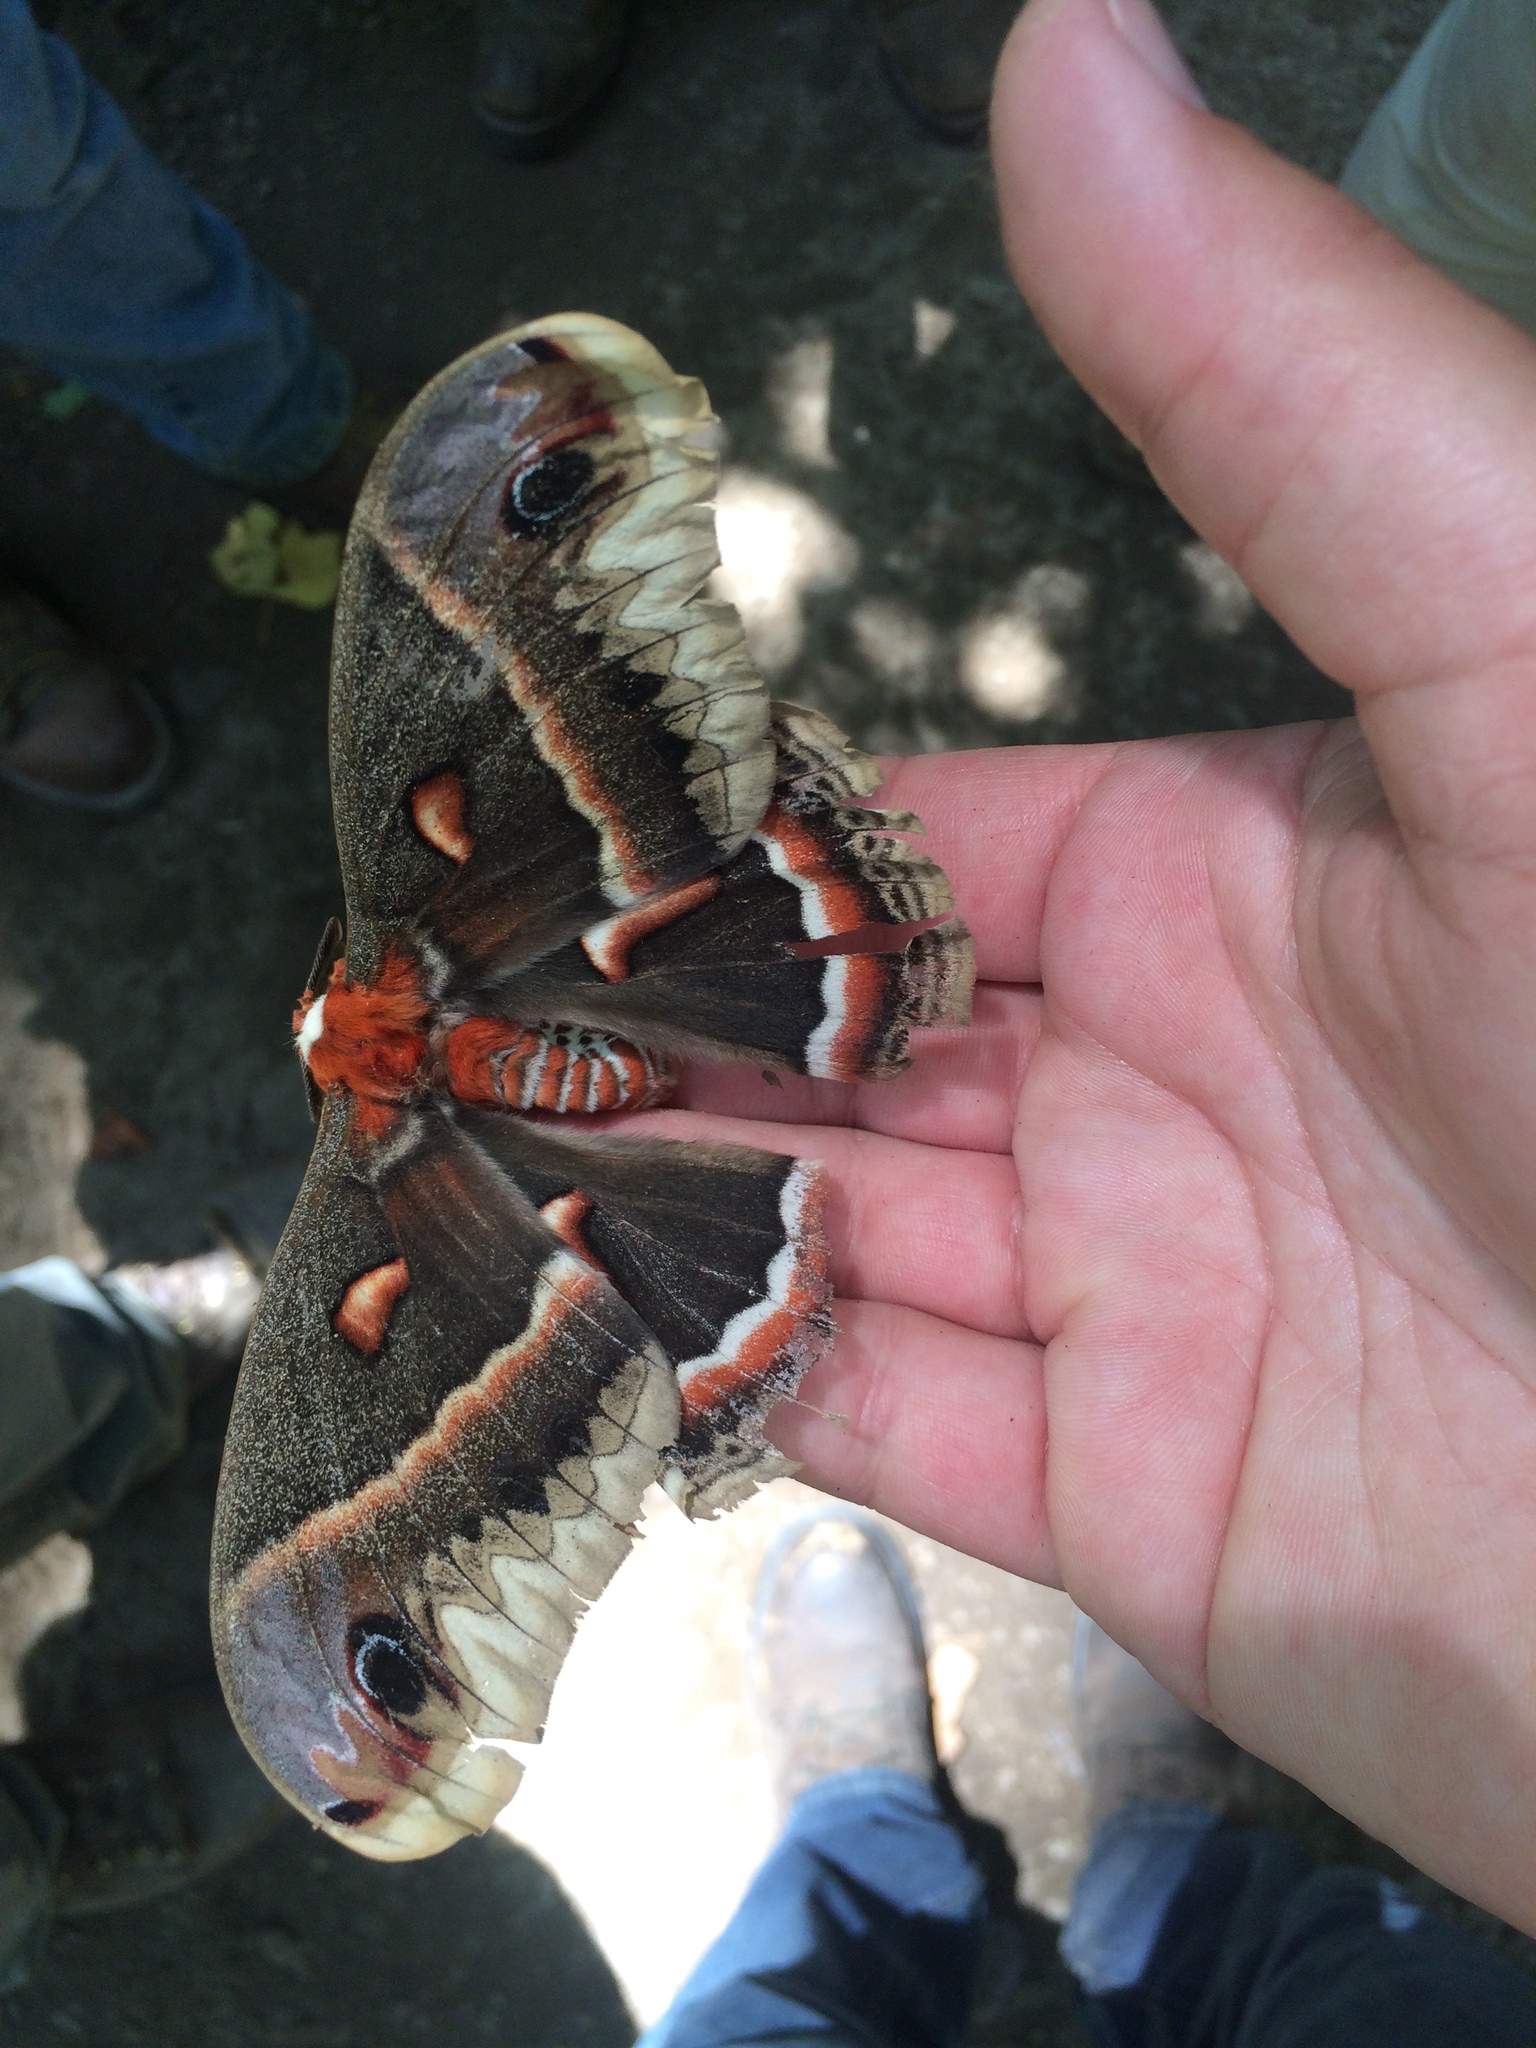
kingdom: Animalia
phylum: Arthropoda
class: Insecta
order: Lepidoptera
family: Saturniidae
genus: Hyalophora
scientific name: Hyalophora cecropia
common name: Cecropia silkmoth
